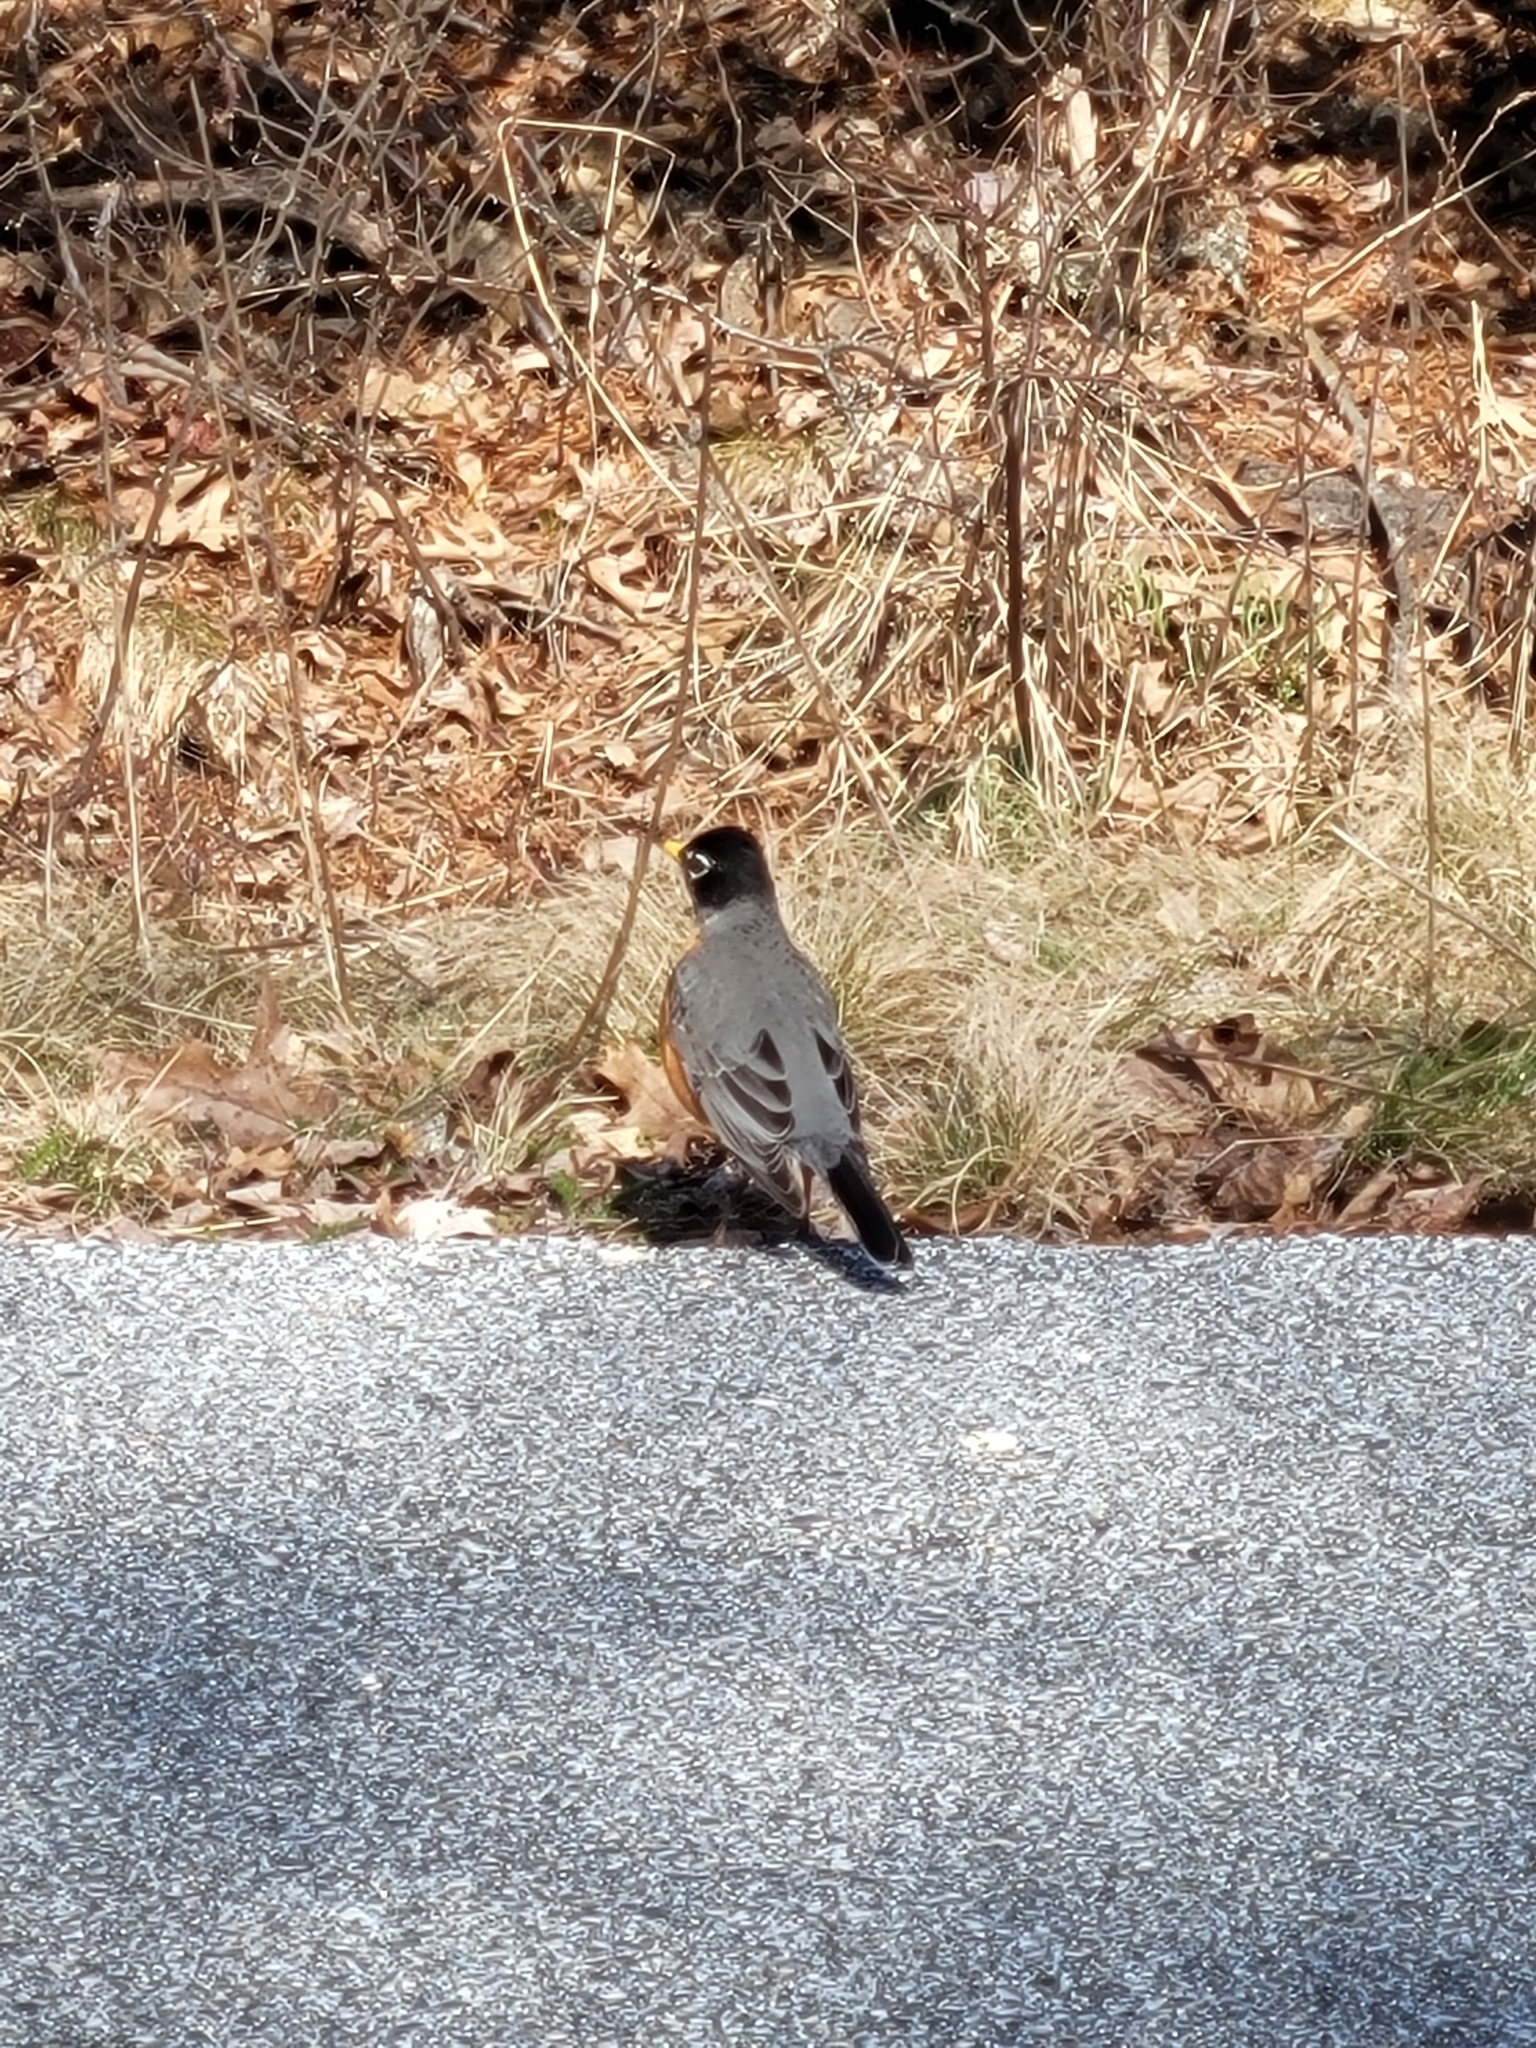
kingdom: Animalia
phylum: Chordata
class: Aves
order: Passeriformes
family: Turdidae
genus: Turdus
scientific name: Turdus migratorius
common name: American robin
